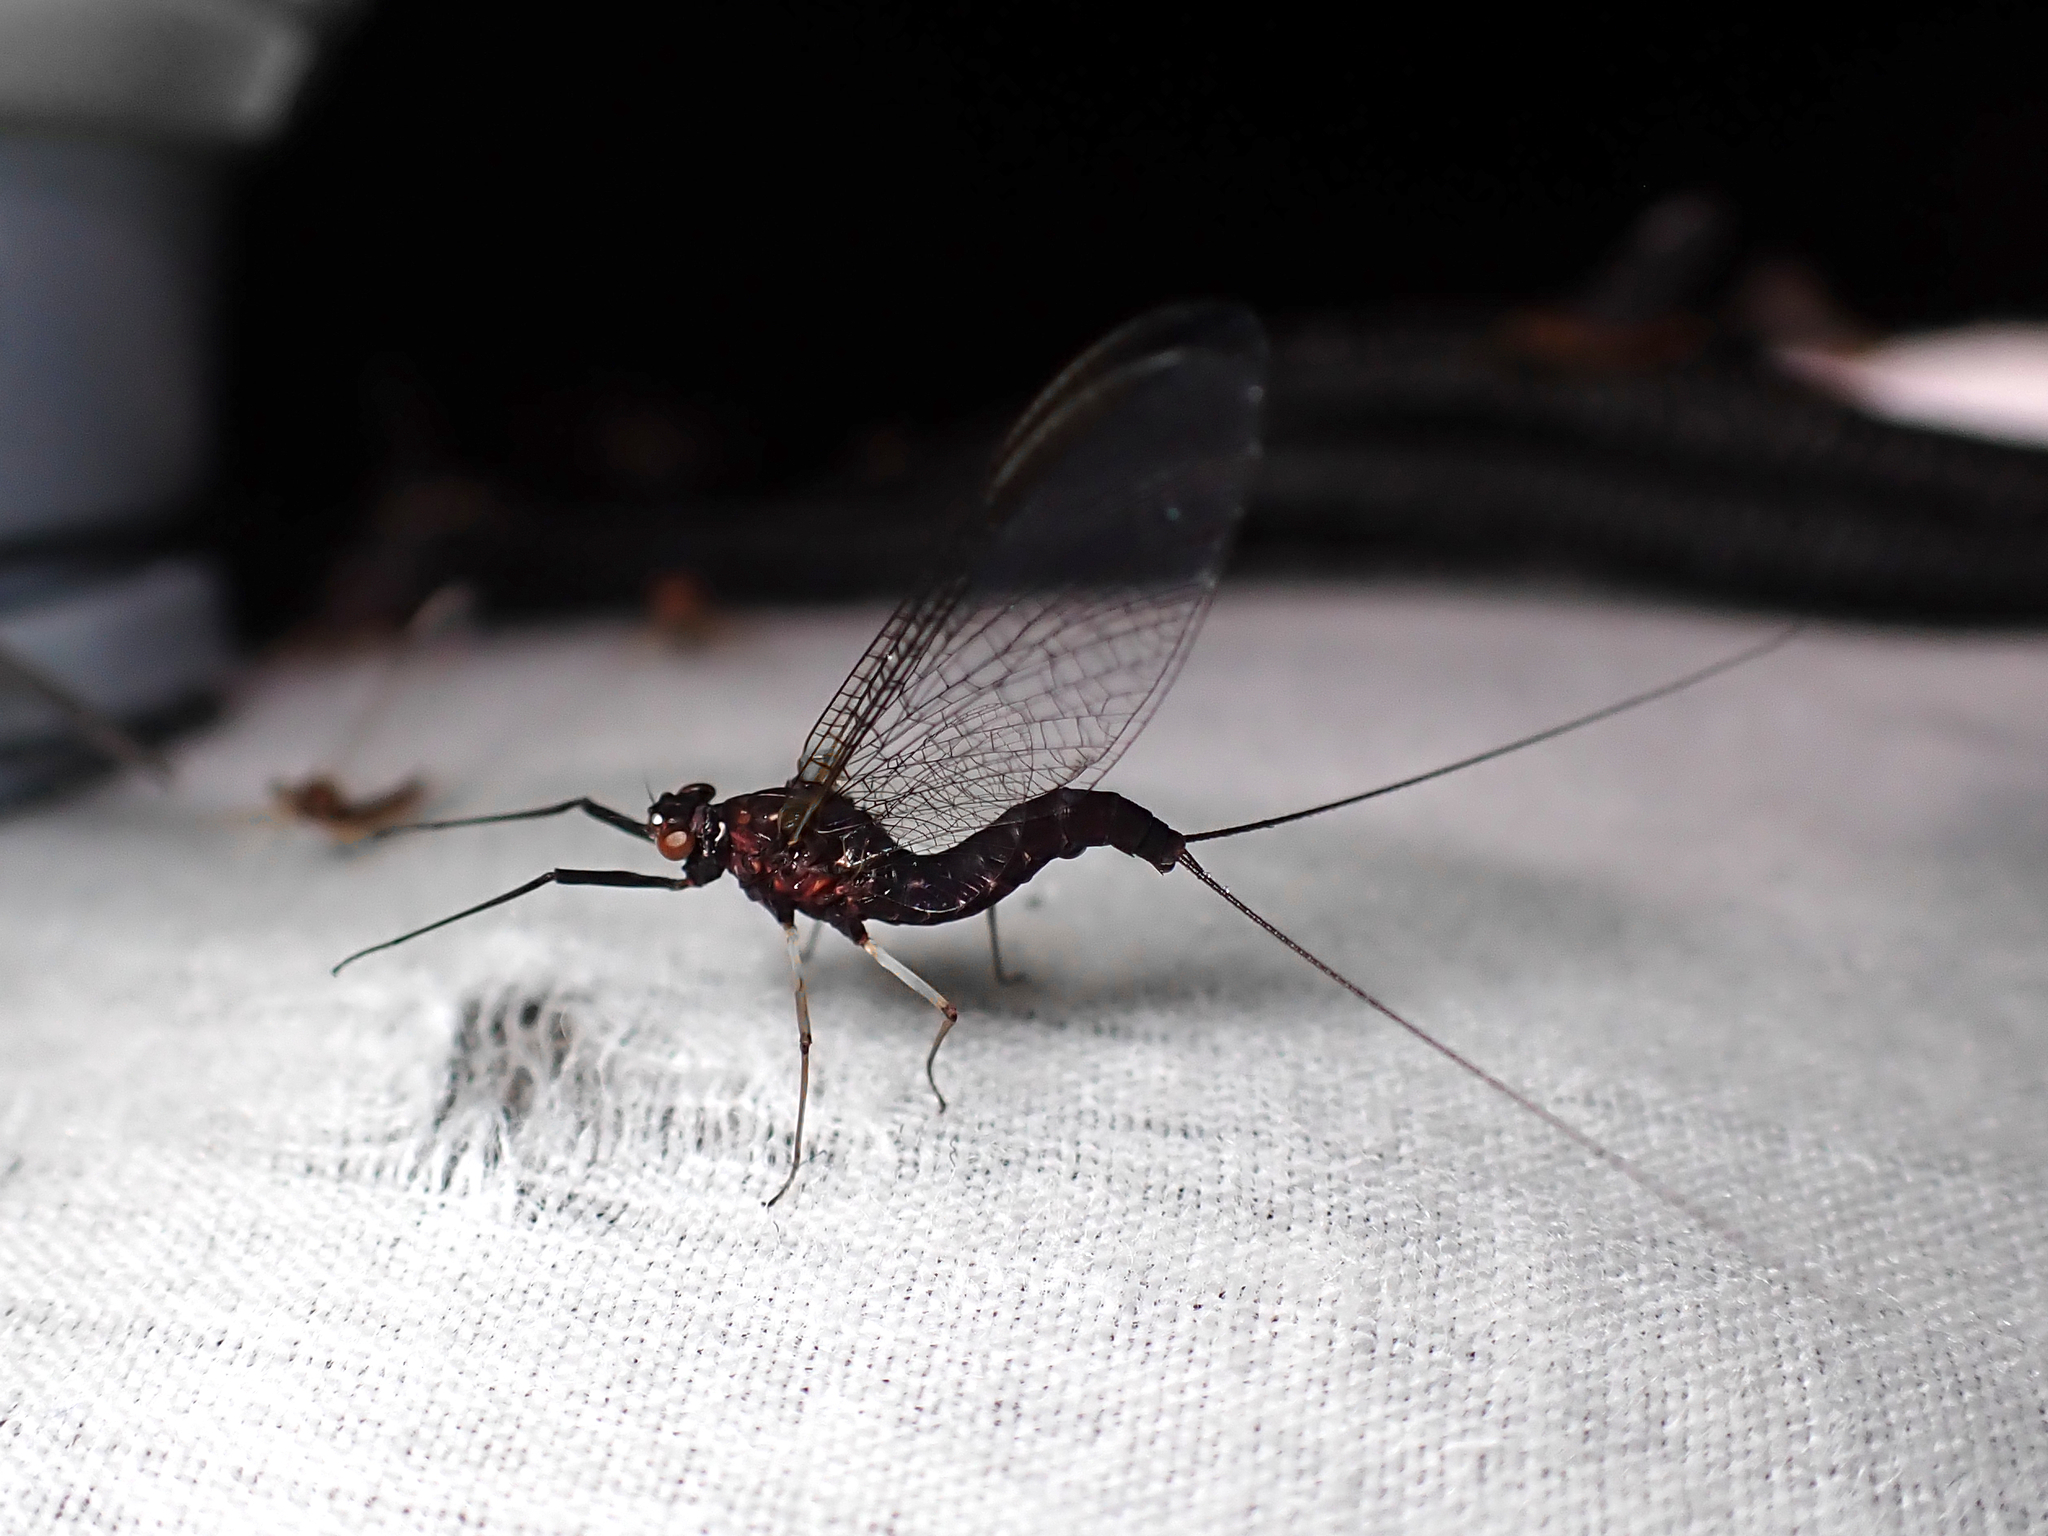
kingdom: Animalia
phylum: Arthropoda
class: Insecta
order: Ephemeroptera
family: Coloburiscidae
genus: Coloburiscus
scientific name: Coloburiscus humeralis
